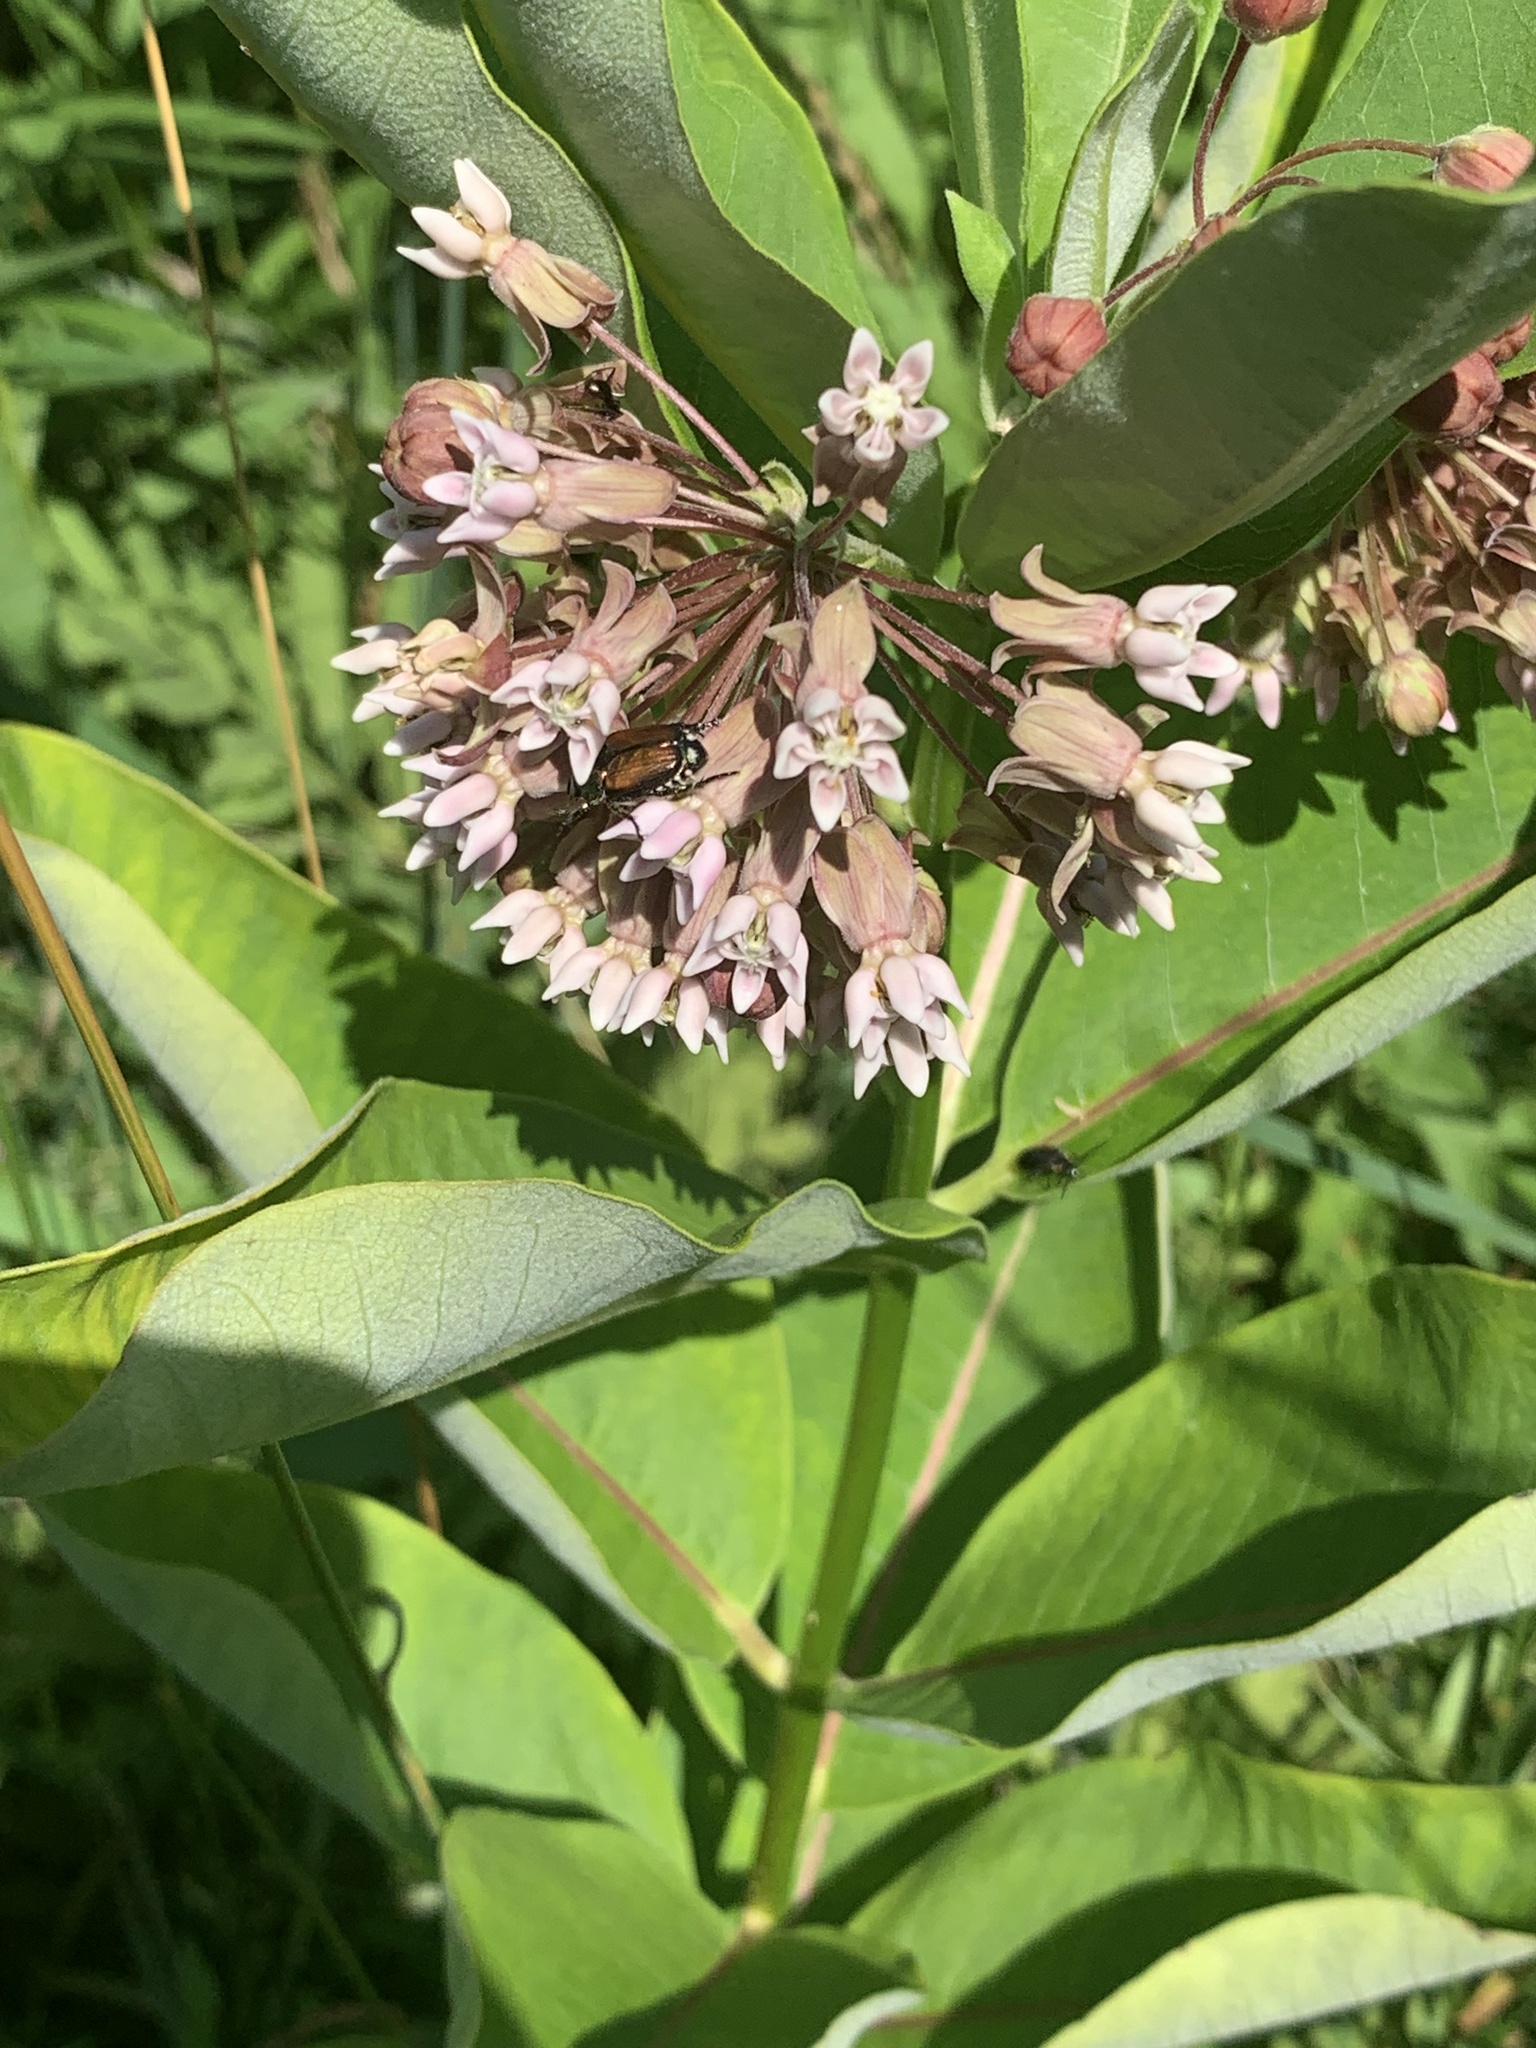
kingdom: Animalia
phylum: Arthropoda
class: Insecta
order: Coleoptera
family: Scarabaeidae
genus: Popillia
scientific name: Popillia japonica
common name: Japanese beetle
